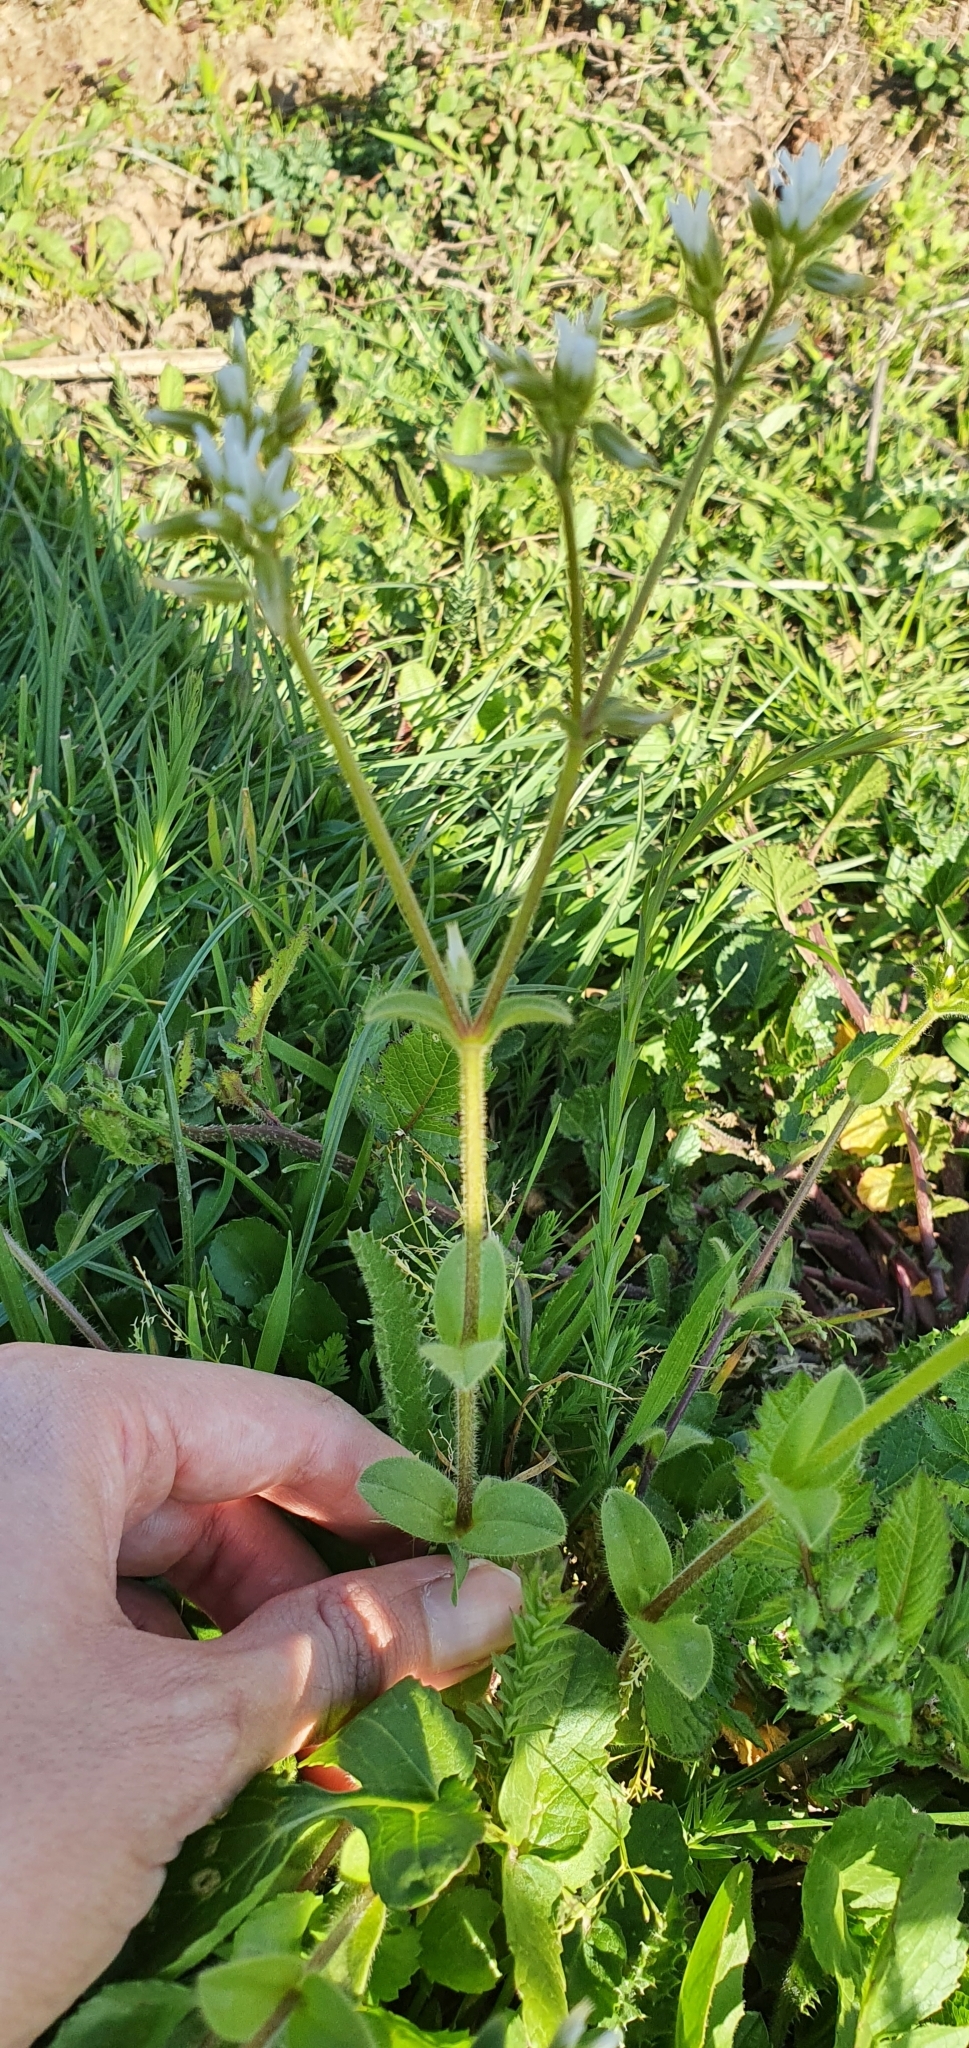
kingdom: Plantae
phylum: Tracheophyta
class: Magnoliopsida
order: Caryophyllales
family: Caryophyllaceae
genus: Cerastium
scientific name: Cerastium glomeratum
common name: Sticky chickweed
